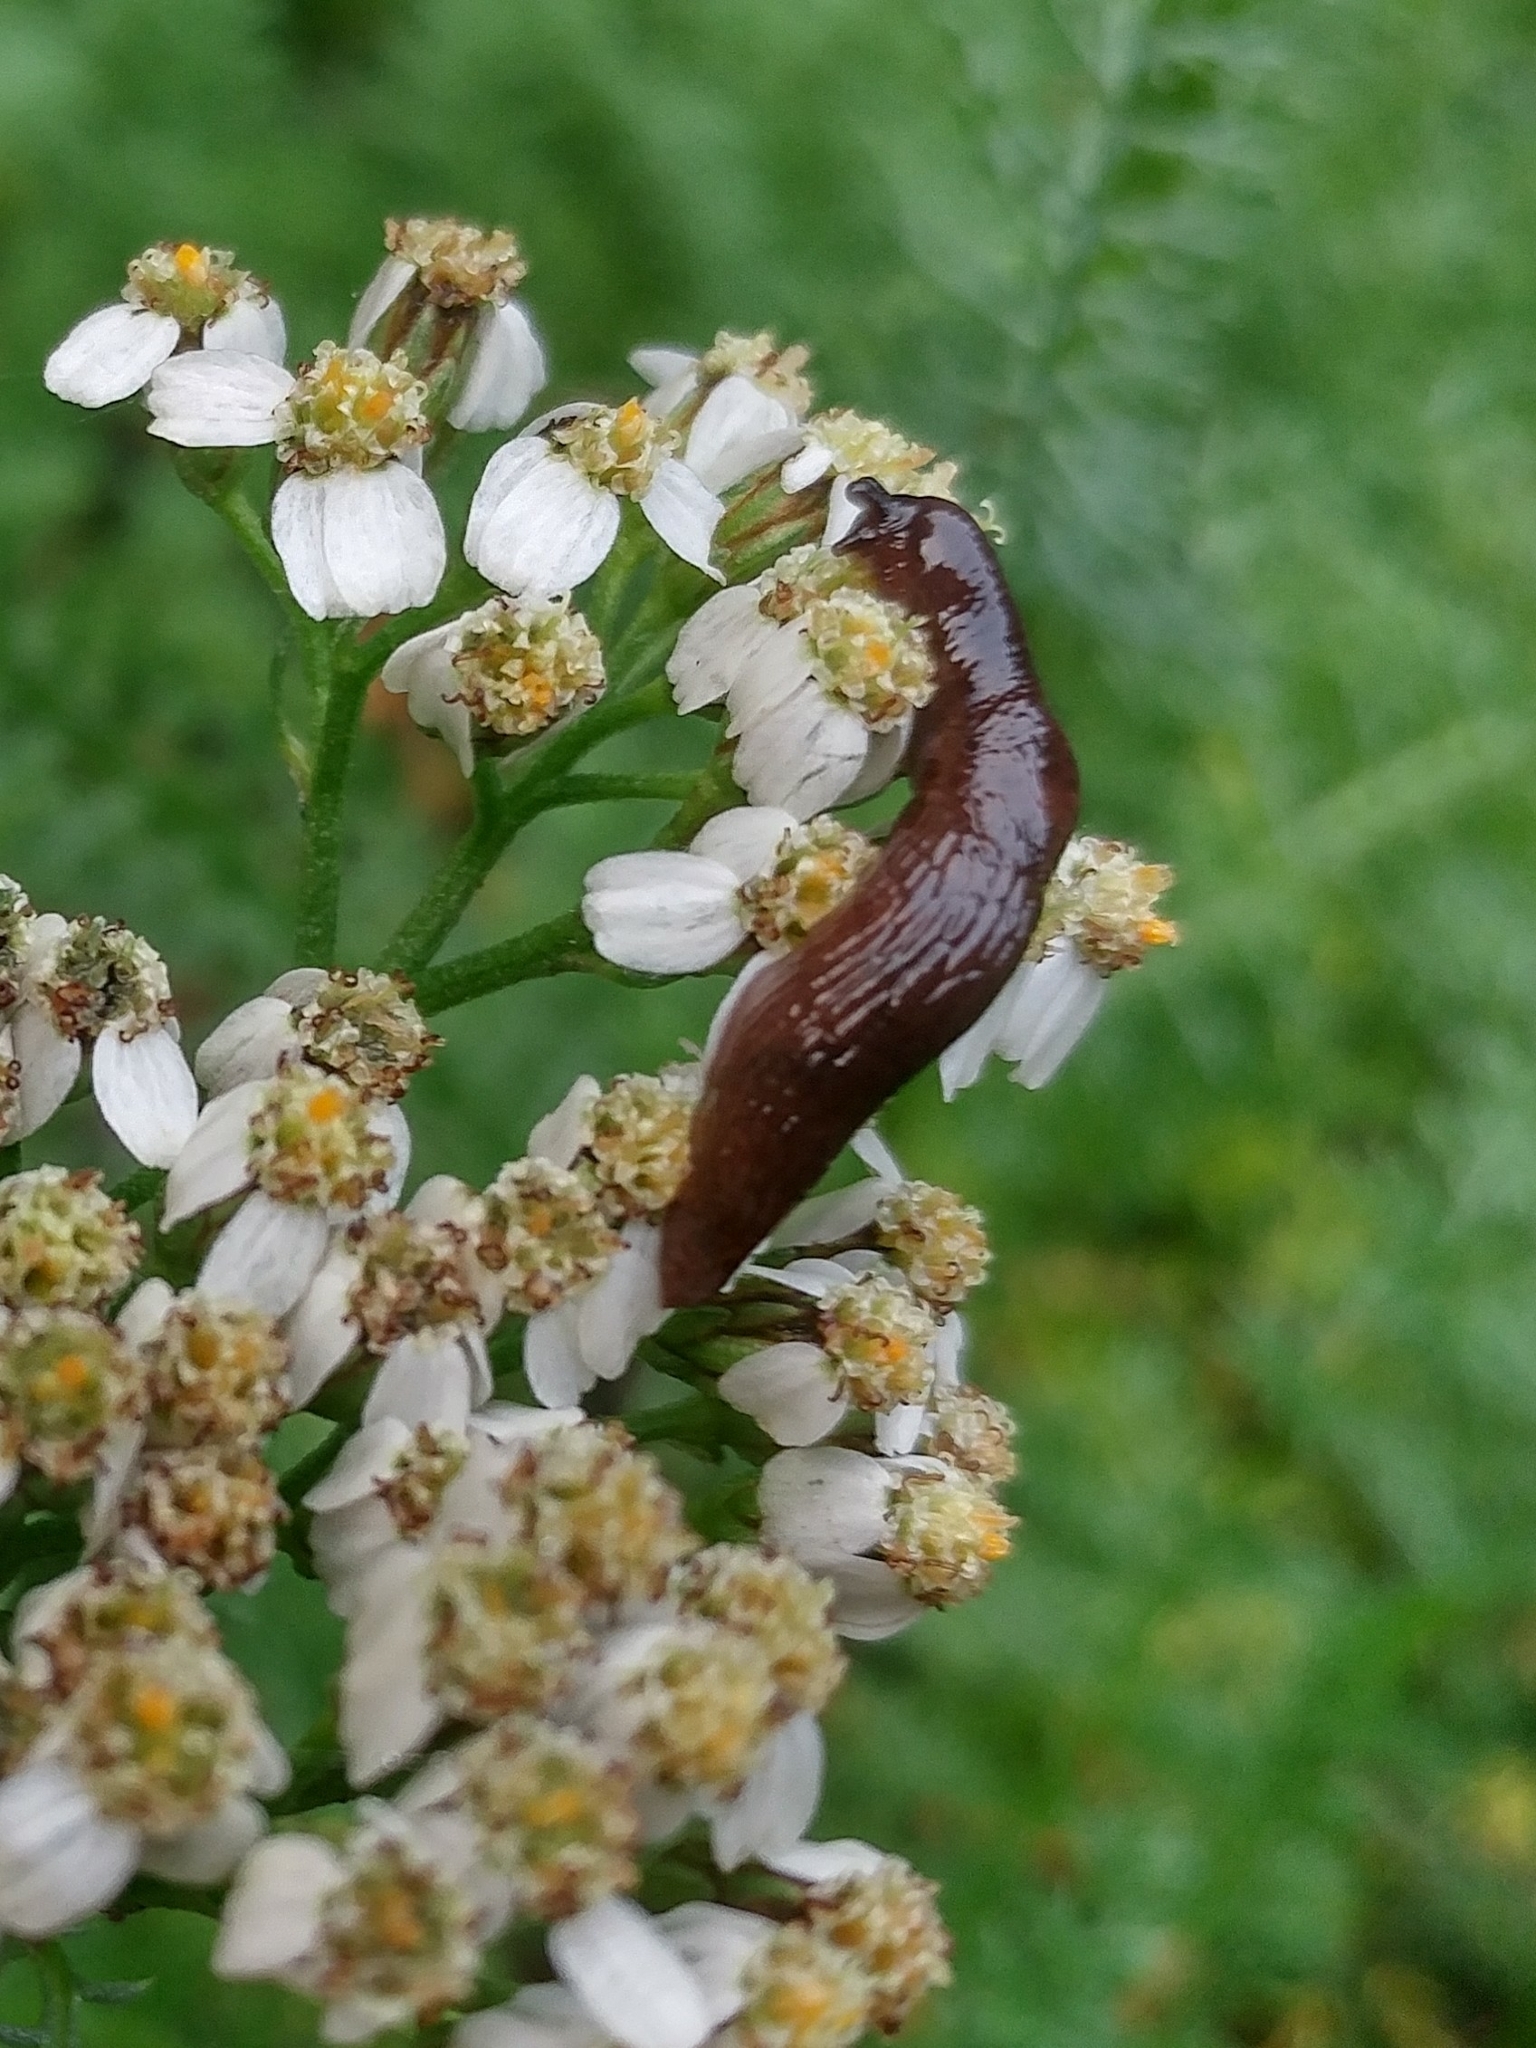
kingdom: Animalia
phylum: Mollusca
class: Gastropoda
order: Stylommatophora
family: Agriolimacidae
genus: Deroceras
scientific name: Deroceras laeve
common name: Marsh slug
